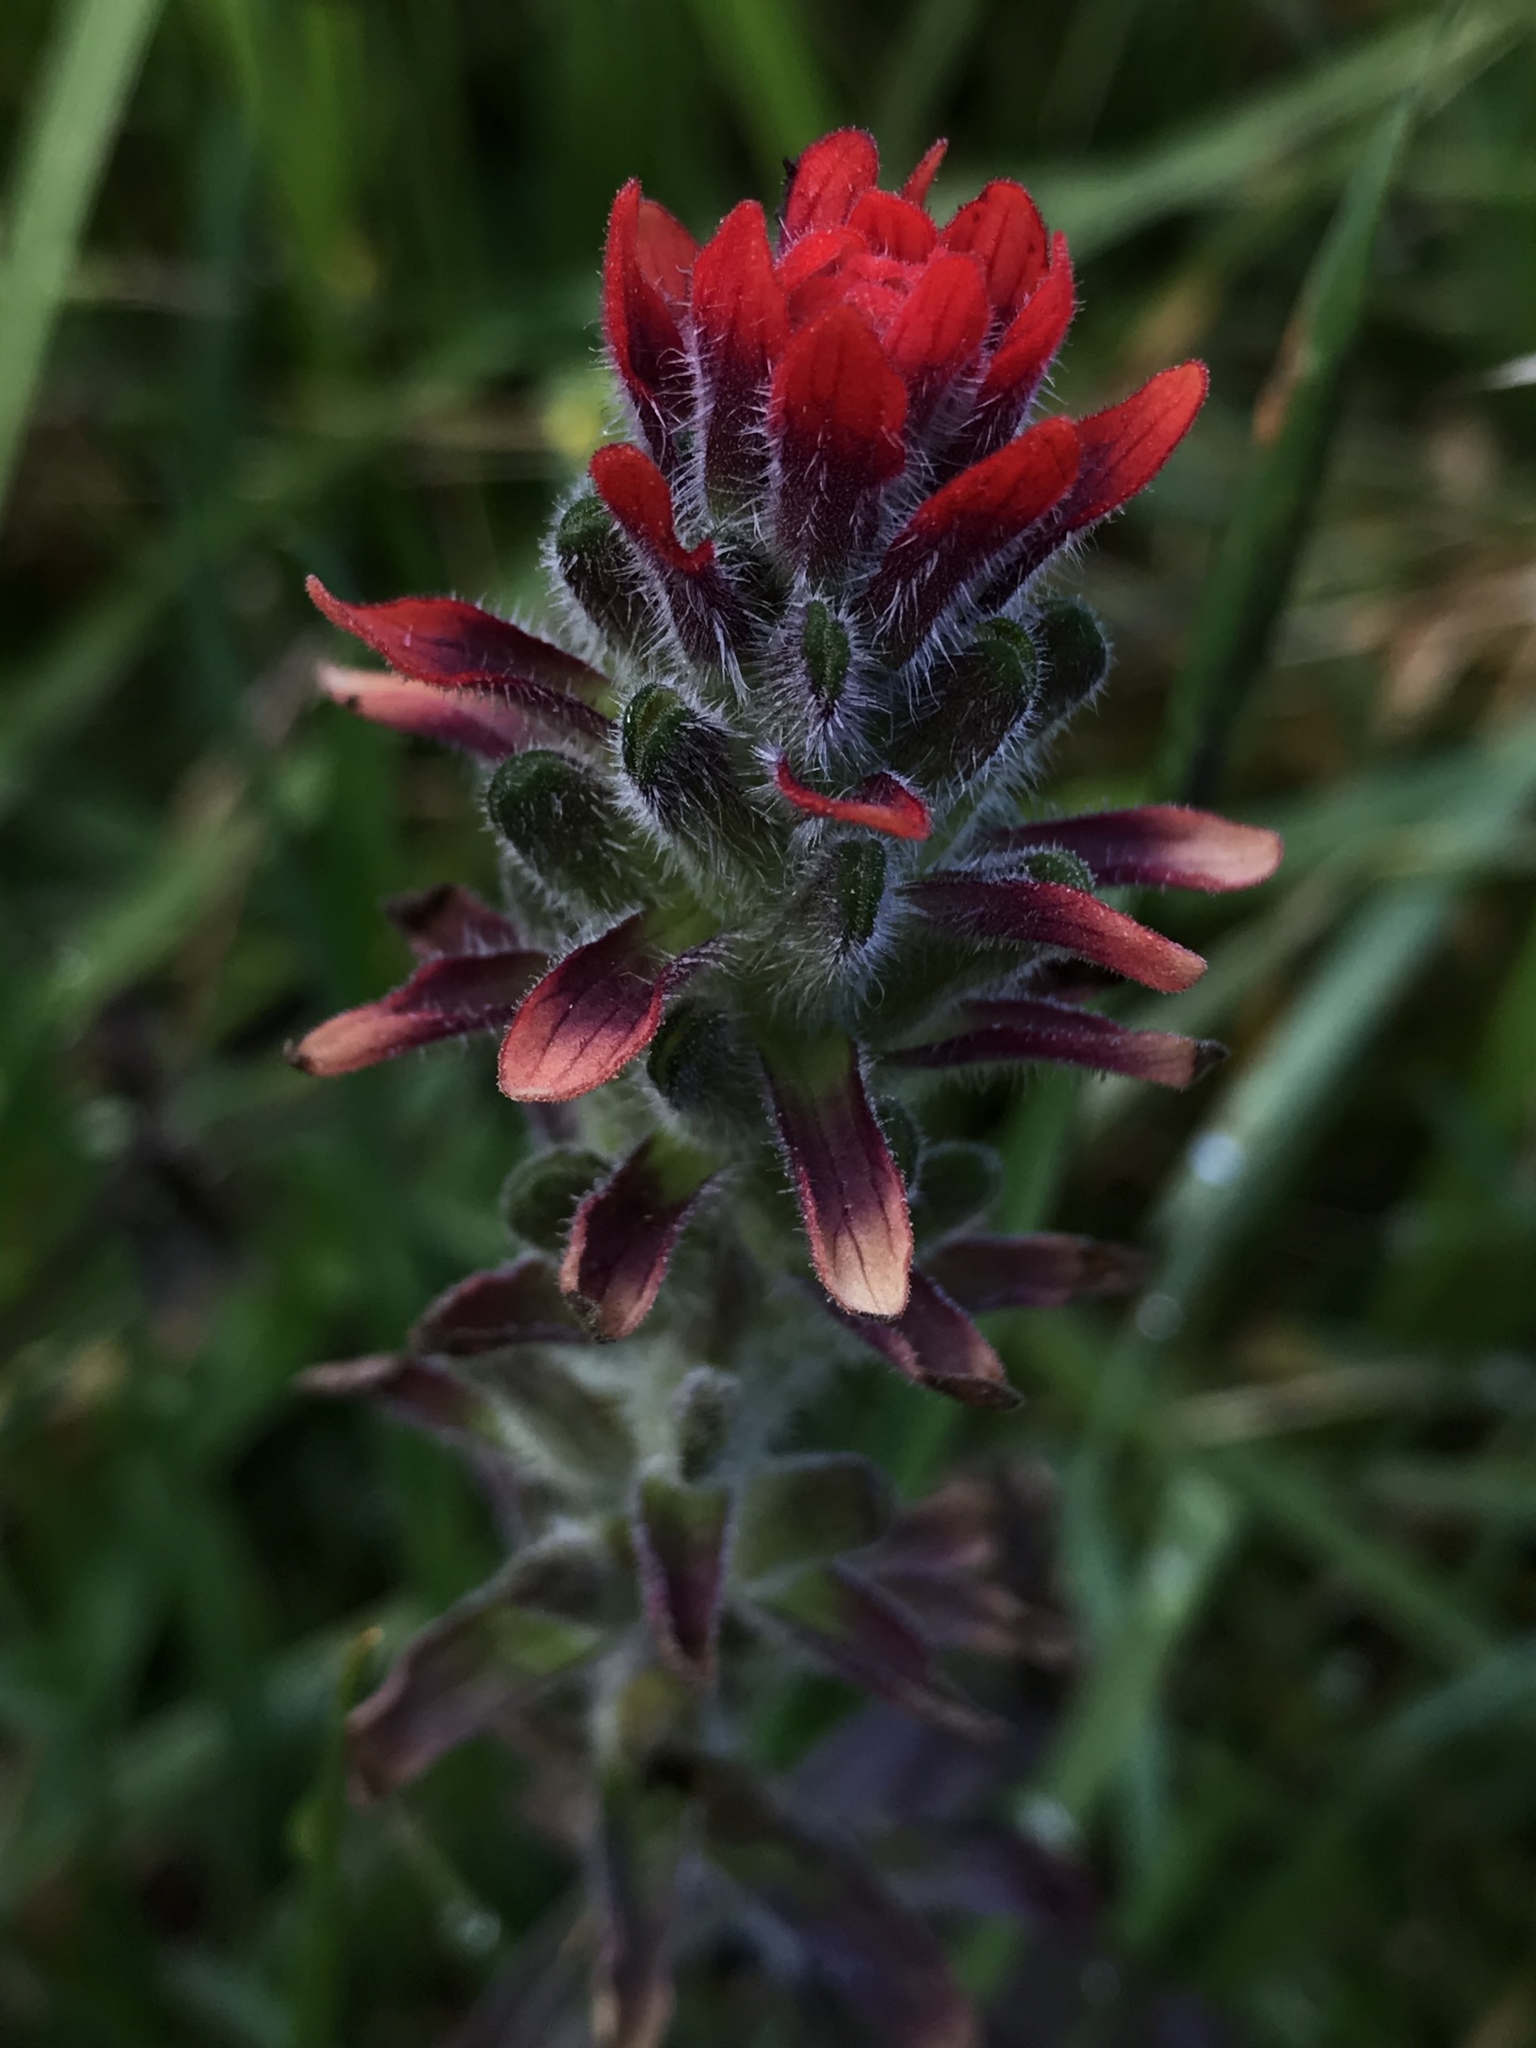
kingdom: Plantae
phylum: Tracheophyta
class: Magnoliopsida
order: Lamiales
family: Orobanchaceae
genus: Castilleja
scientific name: Castilleja arvensis
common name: Indian paintbrush
